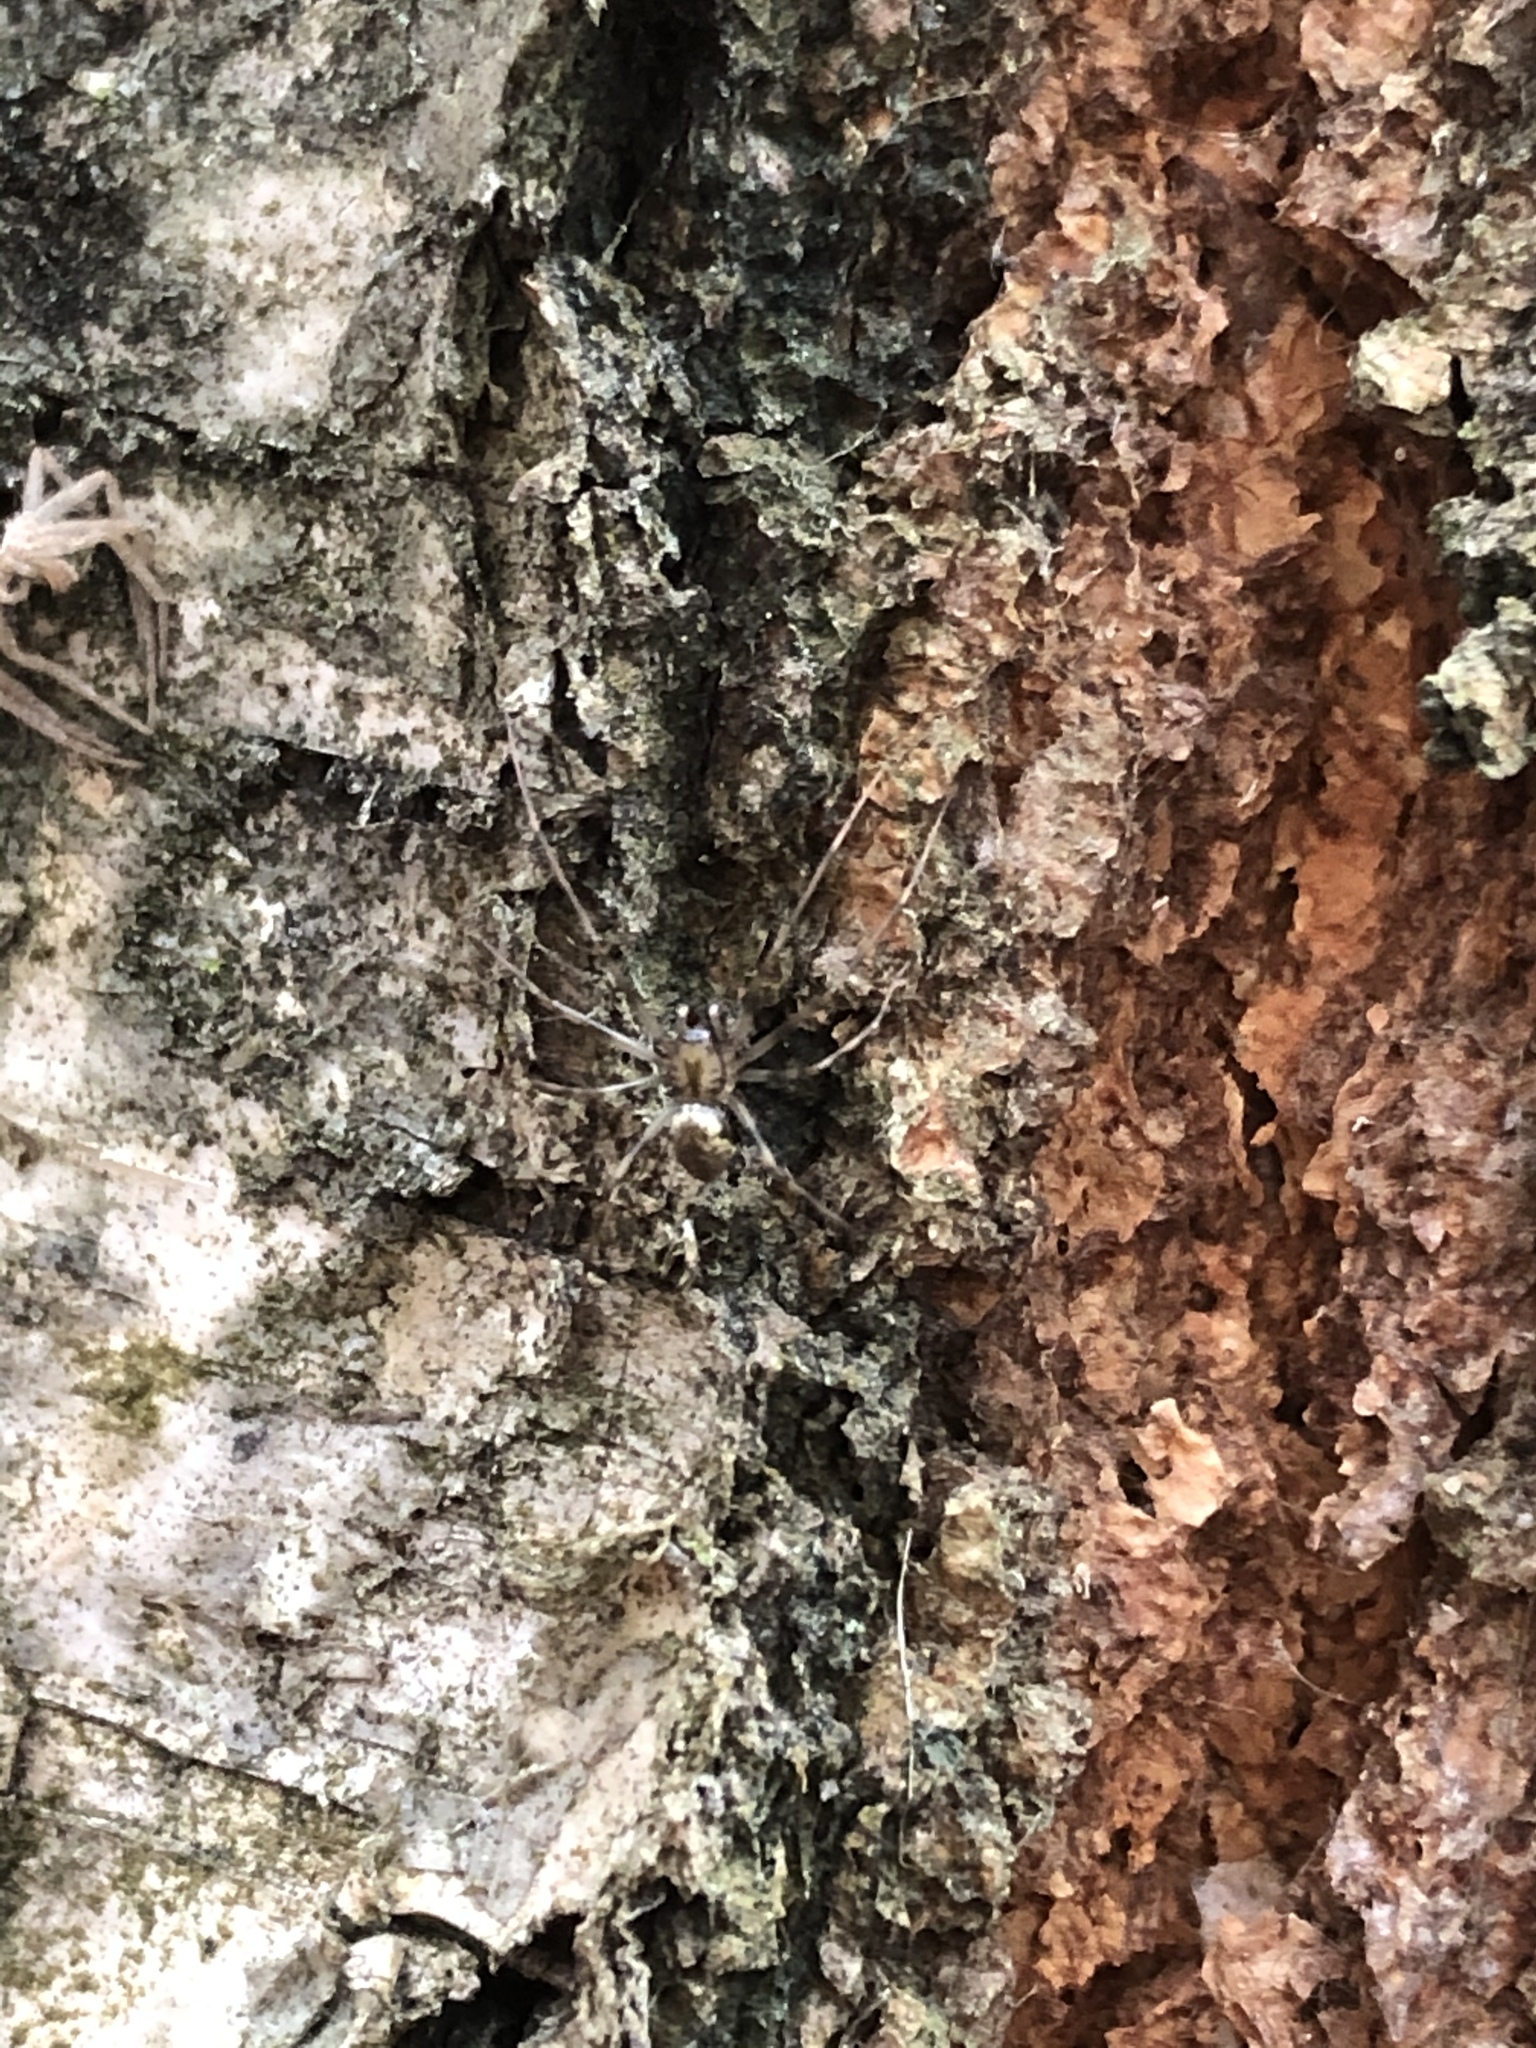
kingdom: Animalia
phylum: Arthropoda
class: Arachnida
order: Araneae
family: Linyphiidae
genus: Drapetisca
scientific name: Drapetisca socialis
